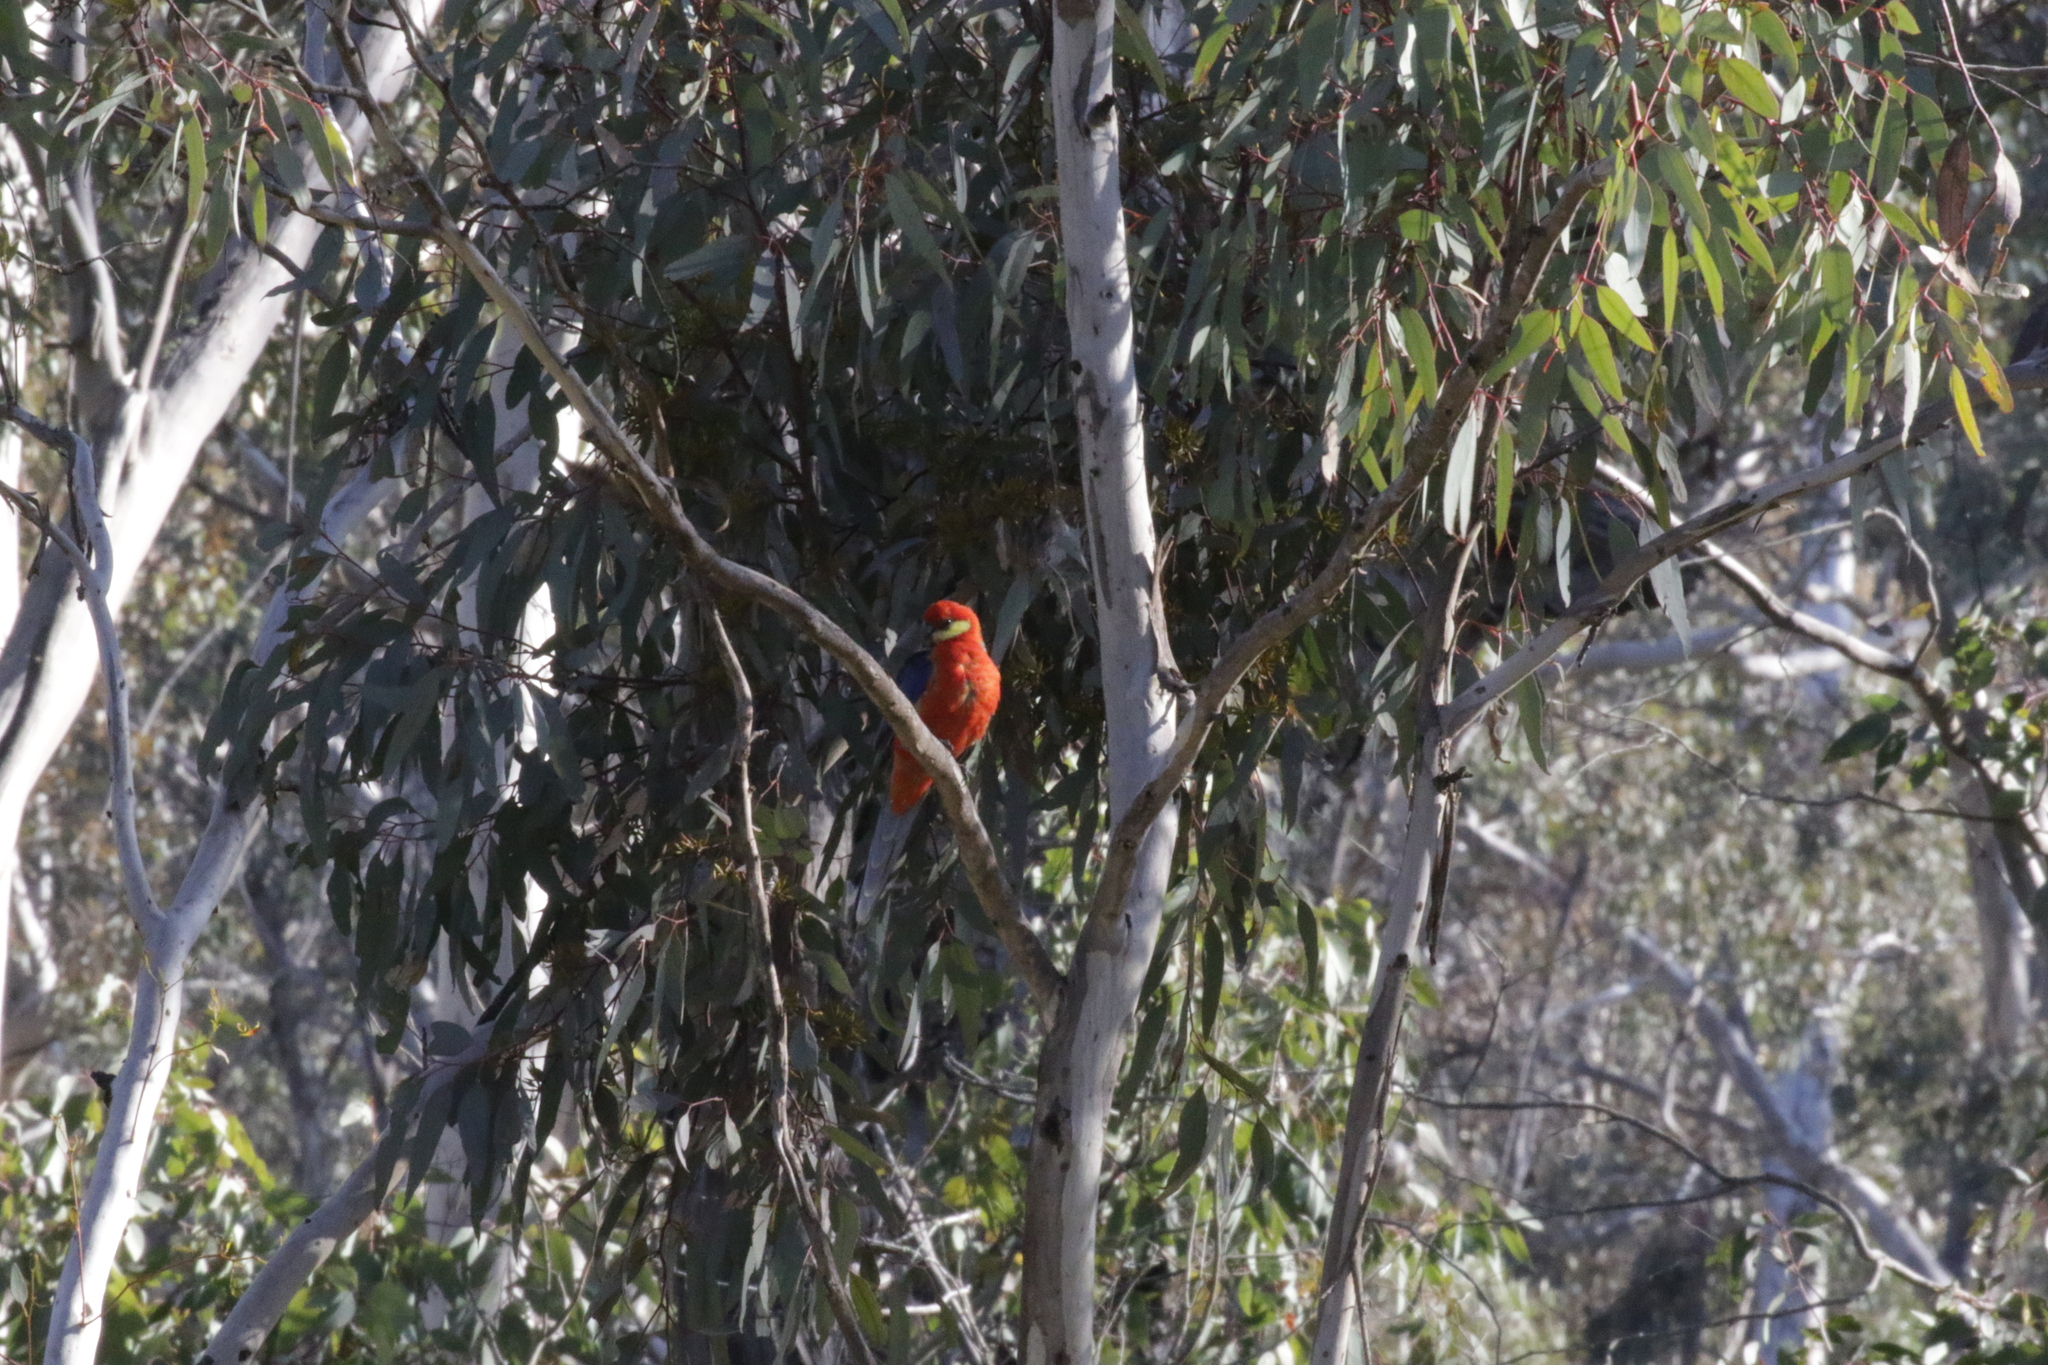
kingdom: Animalia
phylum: Chordata
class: Aves
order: Psittaciformes
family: Psittacidae
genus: Platycercus
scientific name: Platycercus icterotis
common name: Western rosella
